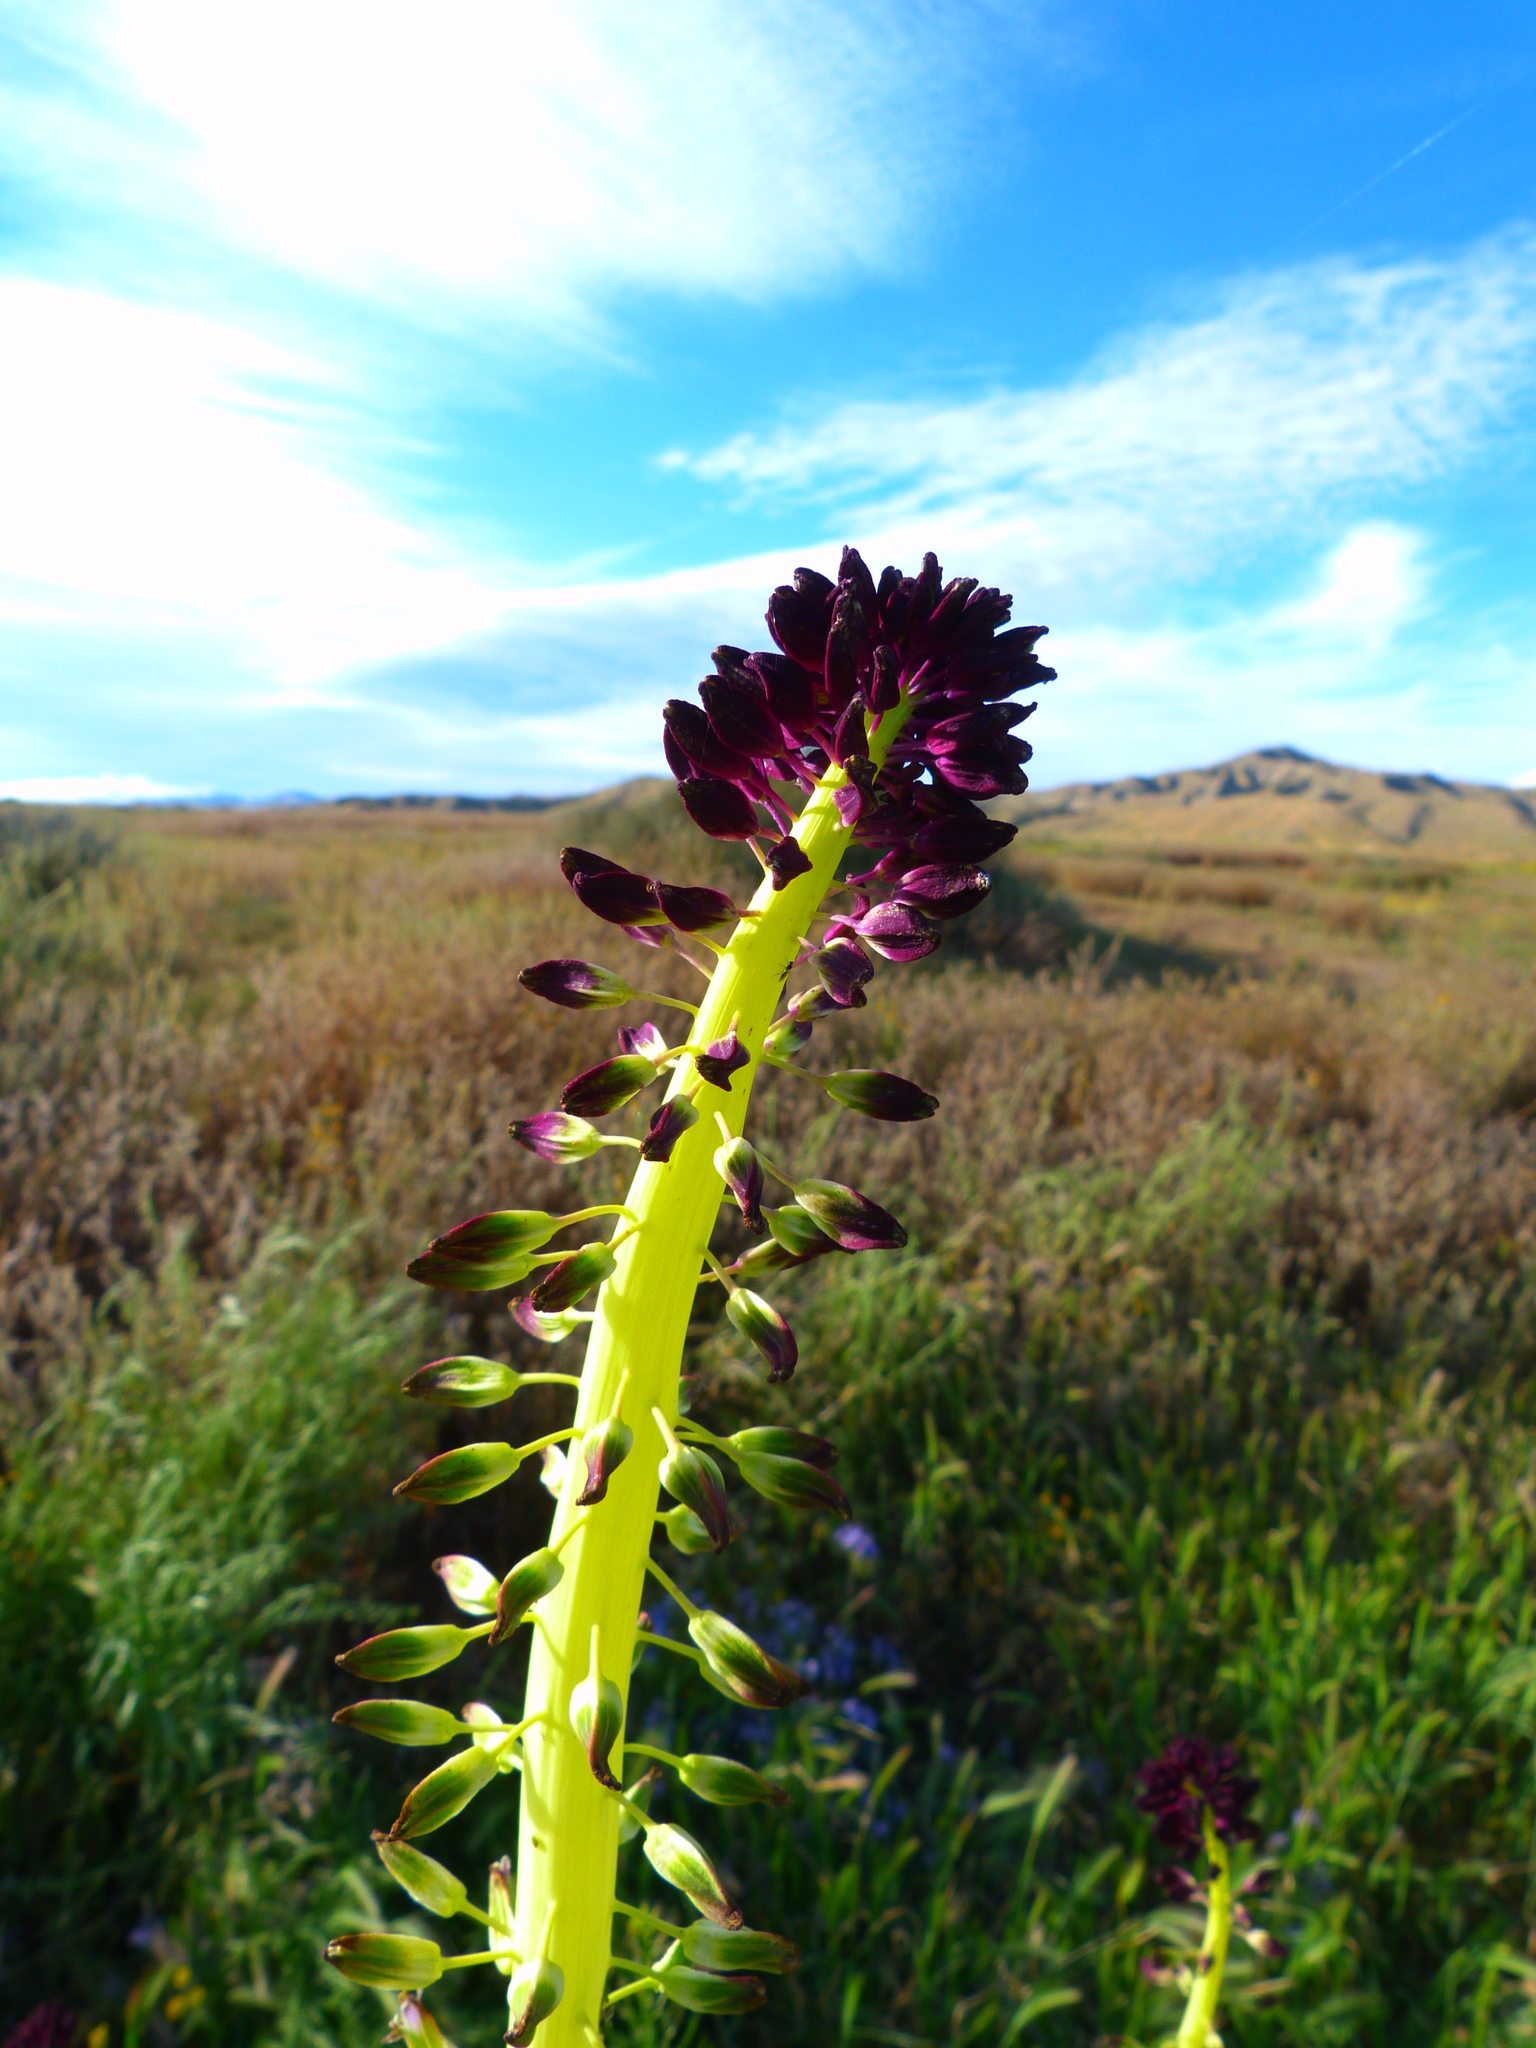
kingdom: Plantae
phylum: Tracheophyta
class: Magnoliopsida
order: Brassicales
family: Brassicaceae
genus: Streptanthus
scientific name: Streptanthus inflatus
